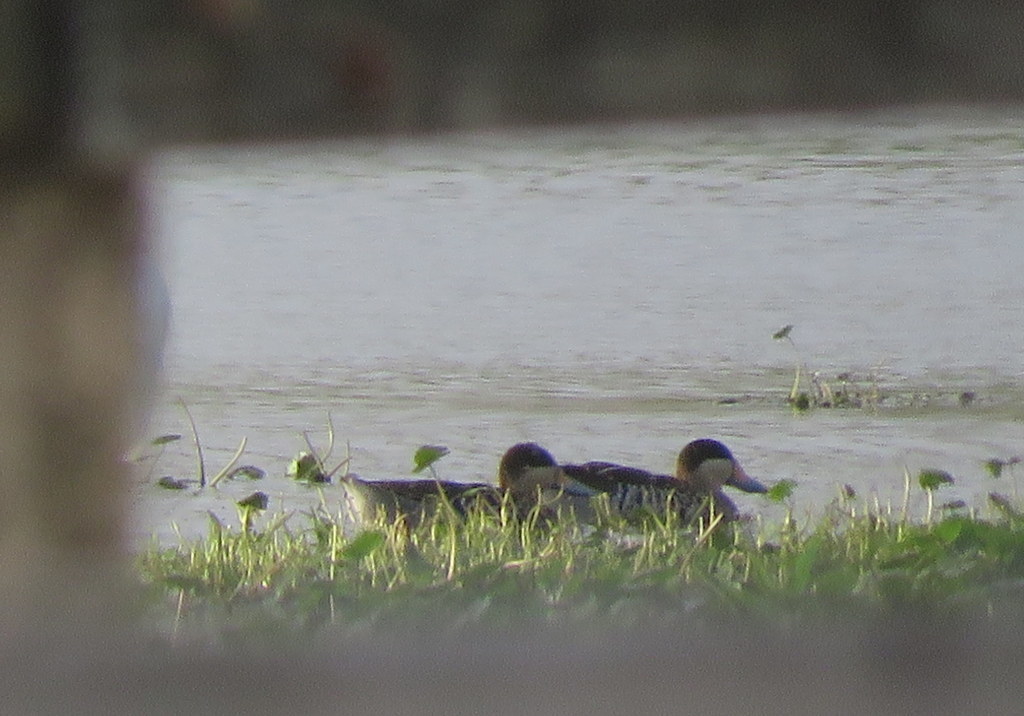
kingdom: Animalia
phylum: Chordata
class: Aves
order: Anseriformes
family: Anatidae
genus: Spatula
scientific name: Spatula versicolor
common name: Silver teal
